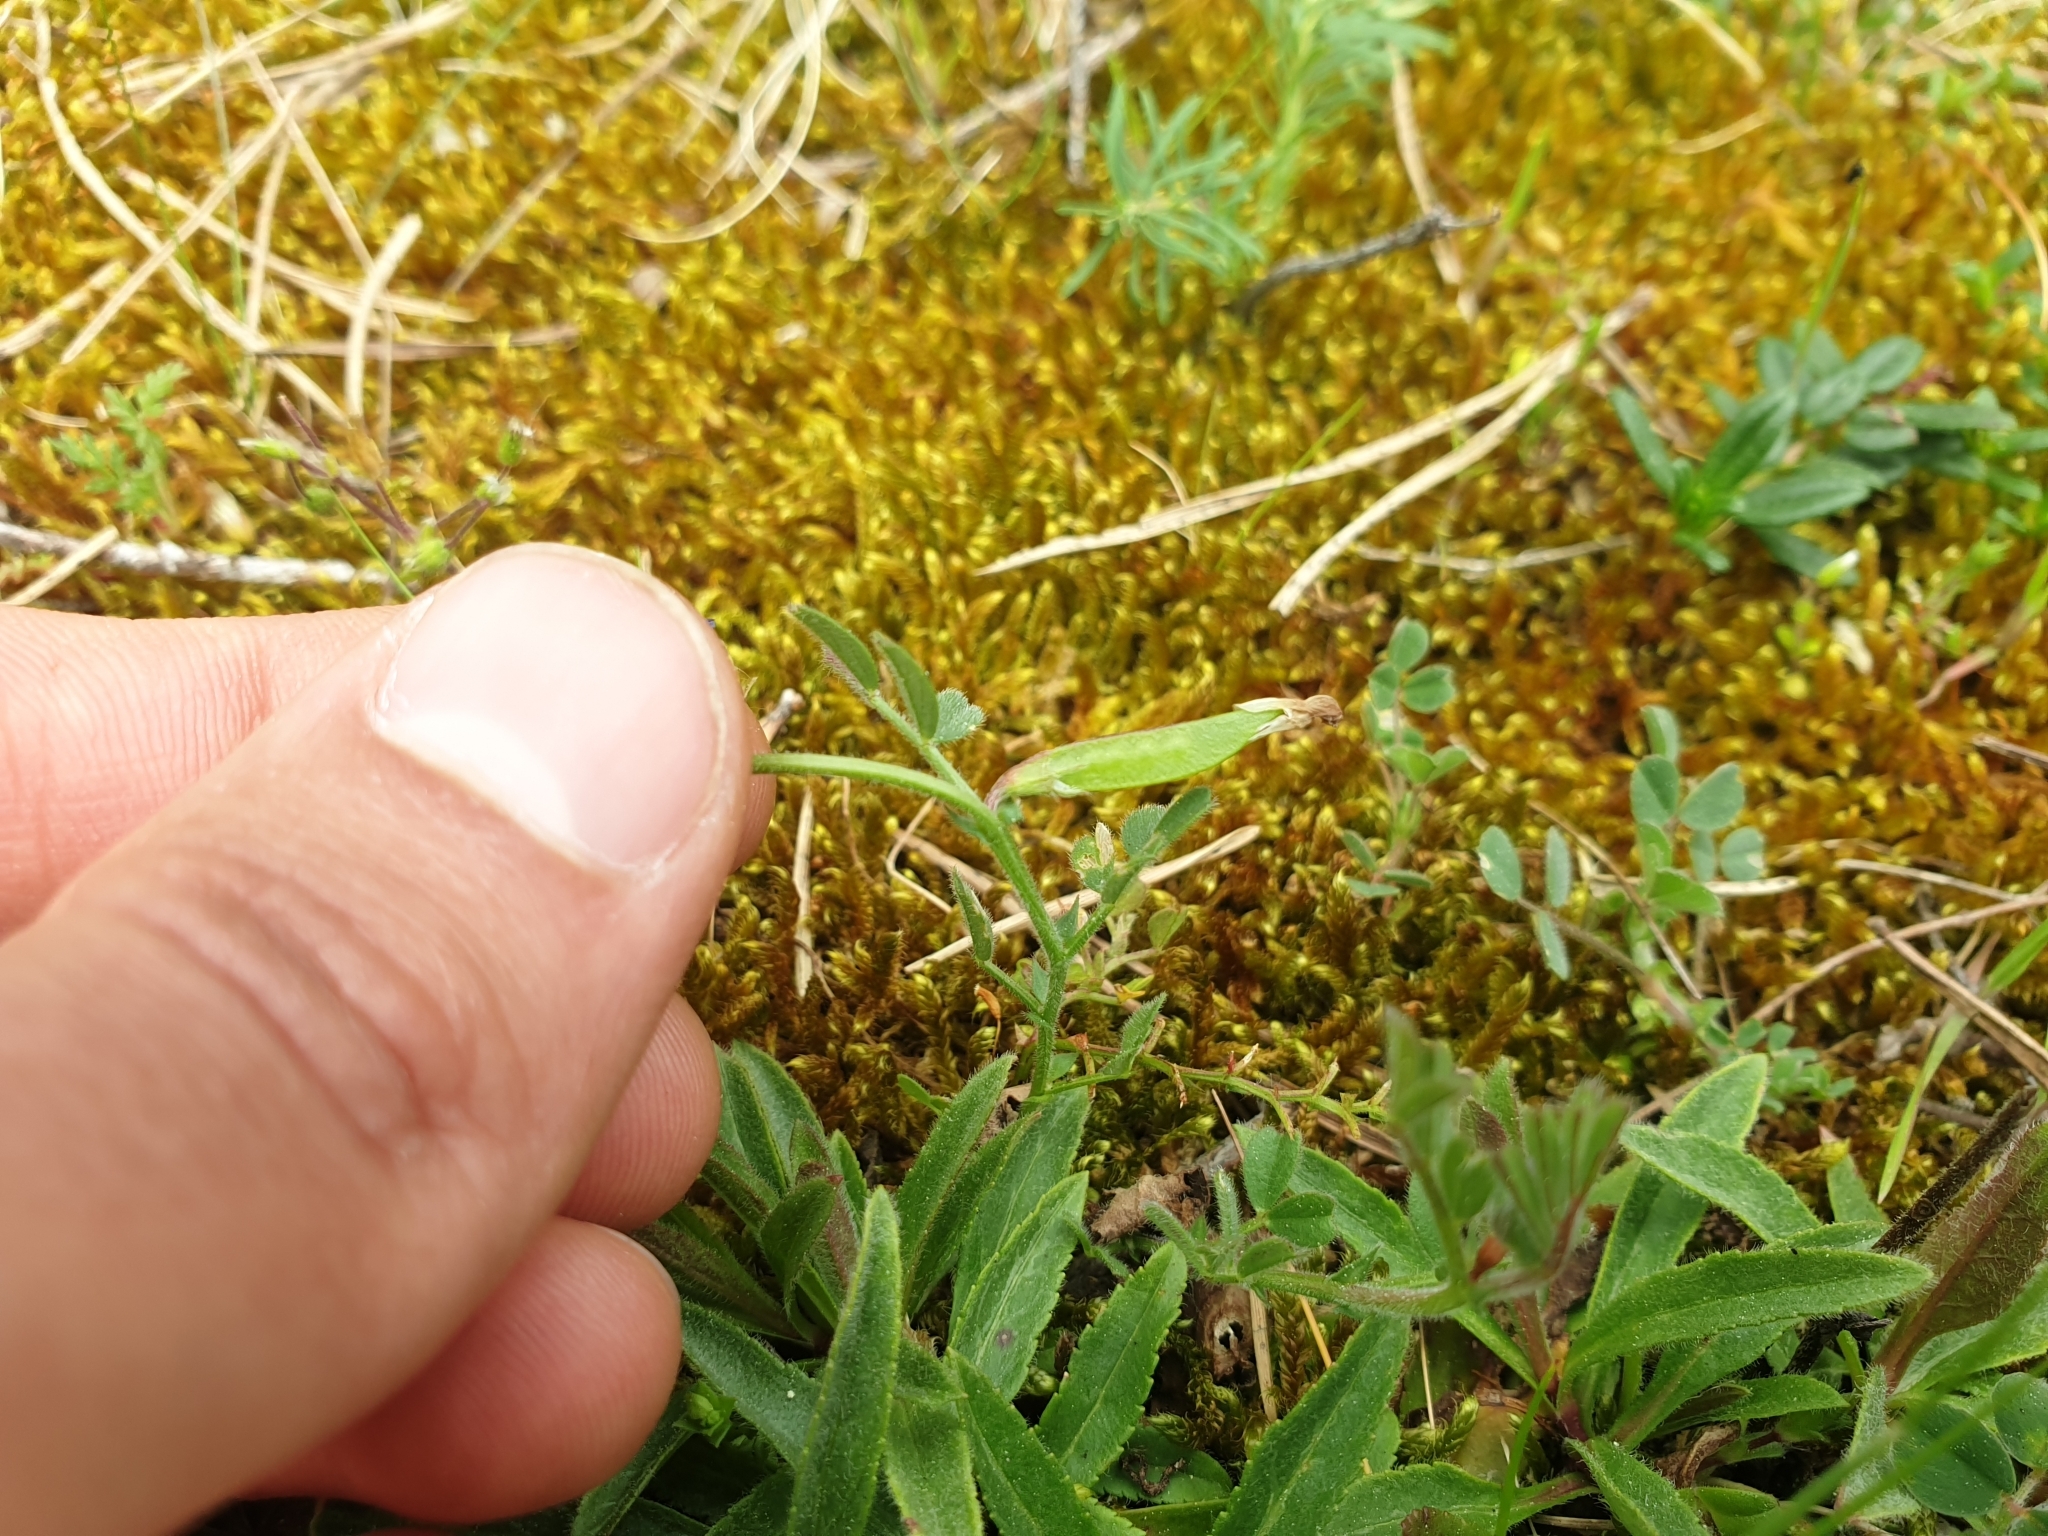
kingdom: Plantae
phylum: Tracheophyta
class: Magnoliopsida
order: Fabales
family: Fabaceae
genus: Vicia
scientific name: Vicia lathyroides
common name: Spring vetch
